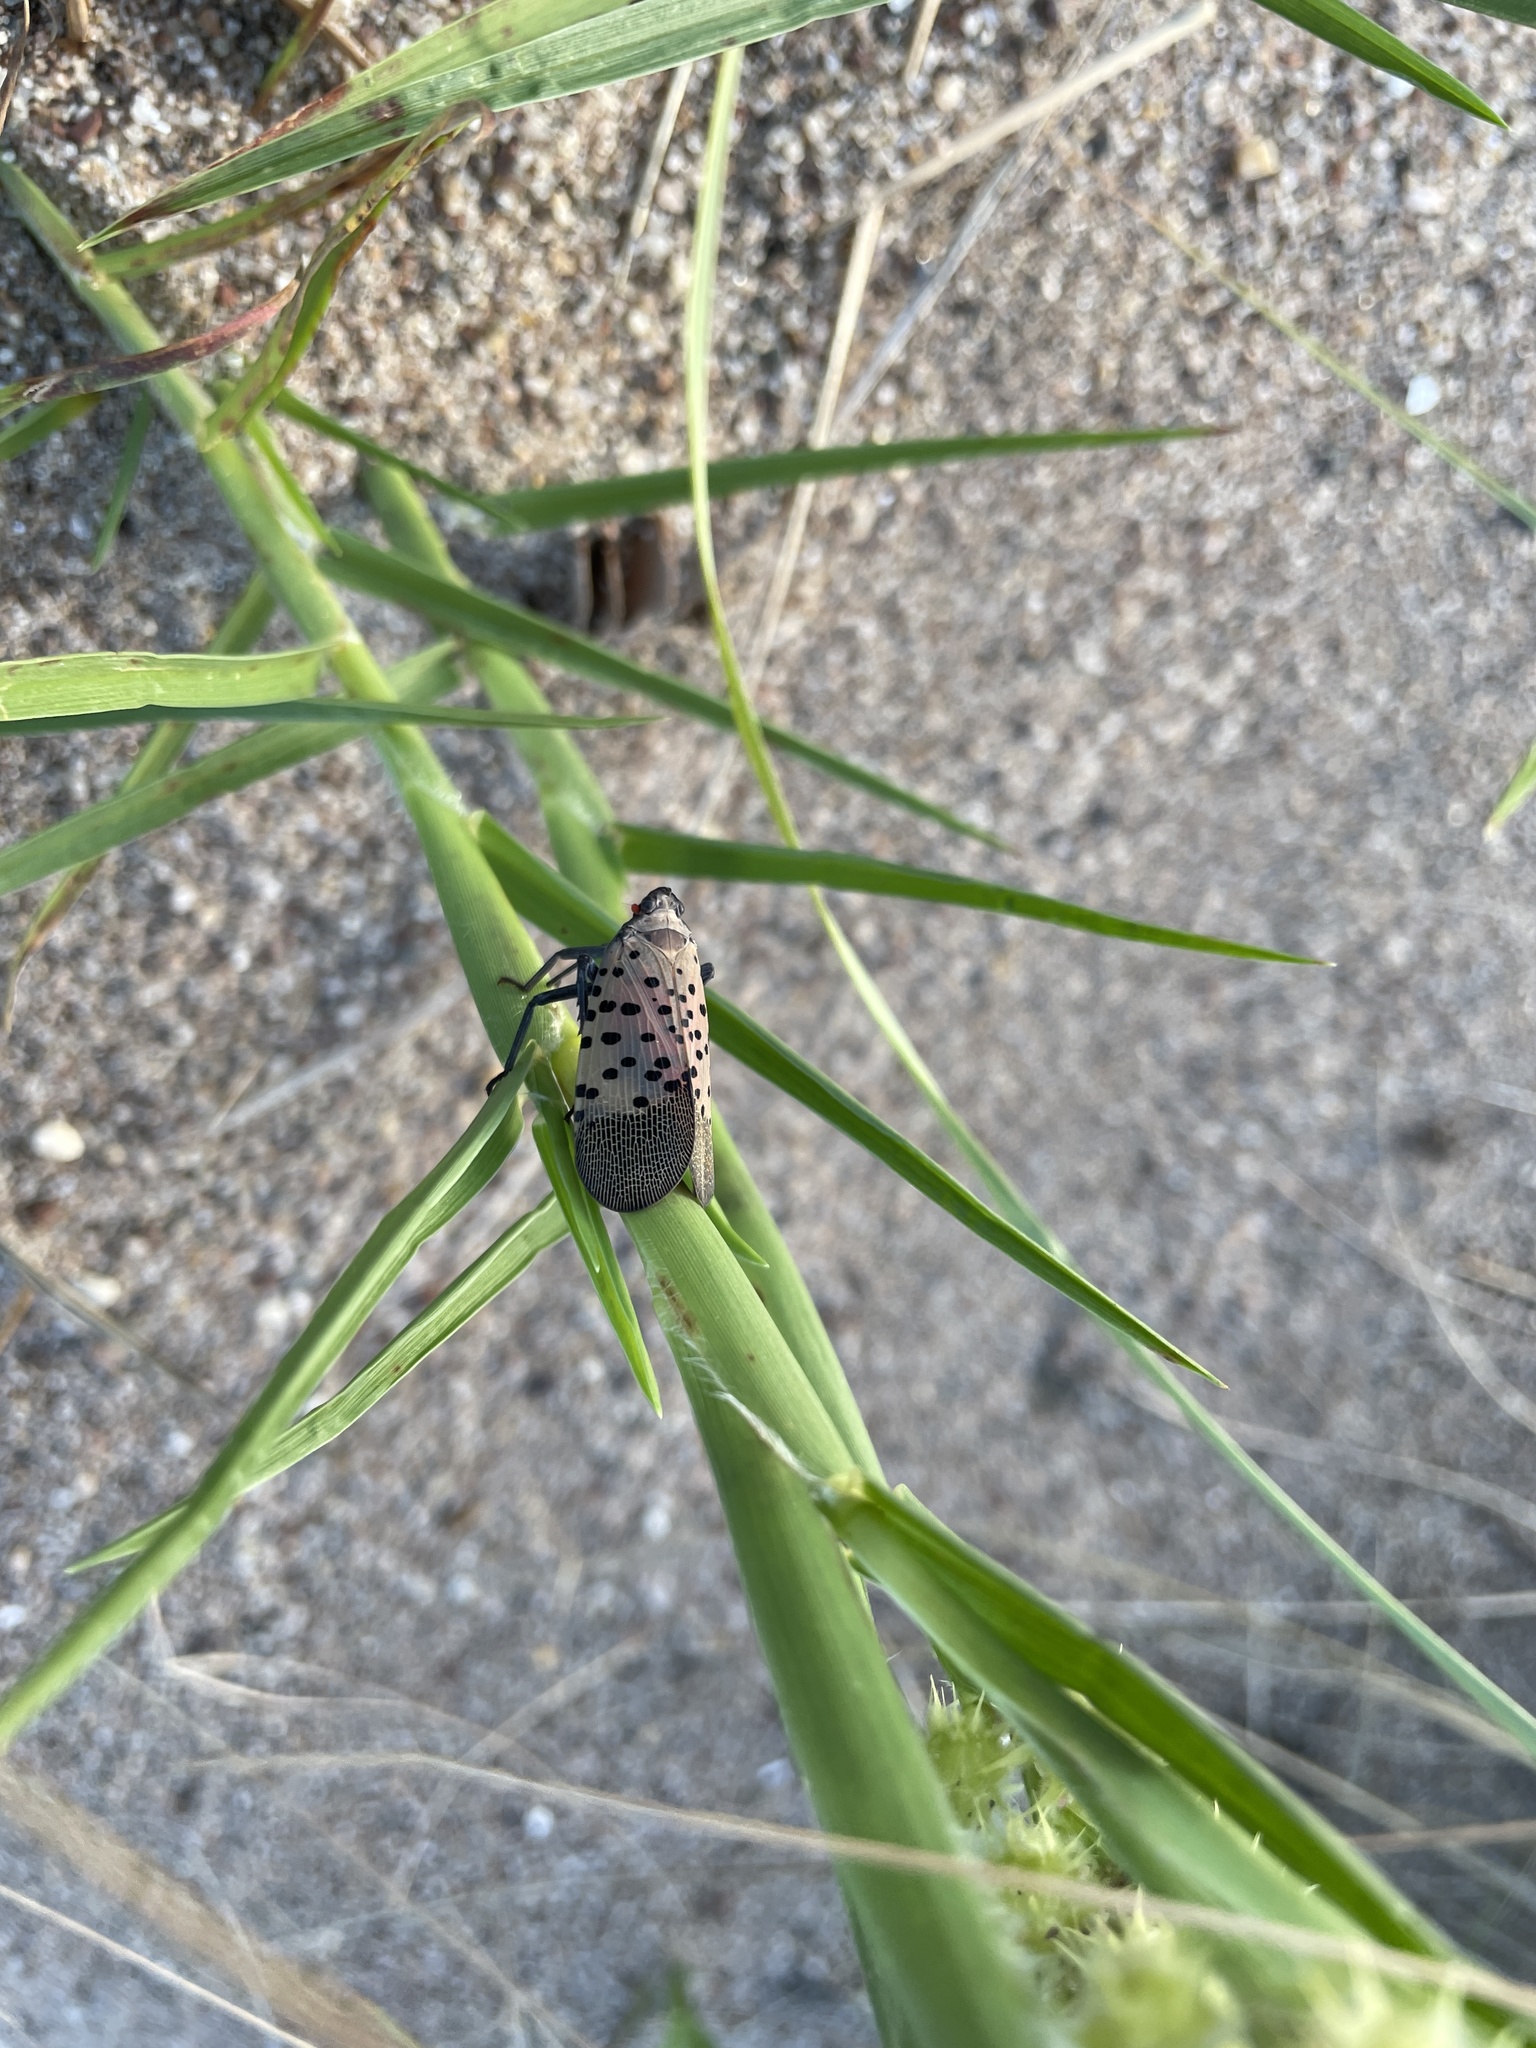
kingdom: Animalia
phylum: Arthropoda
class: Insecta
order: Hemiptera
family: Fulgoridae
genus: Lycorma
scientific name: Lycorma delicatula
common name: Spotted lanternfly
